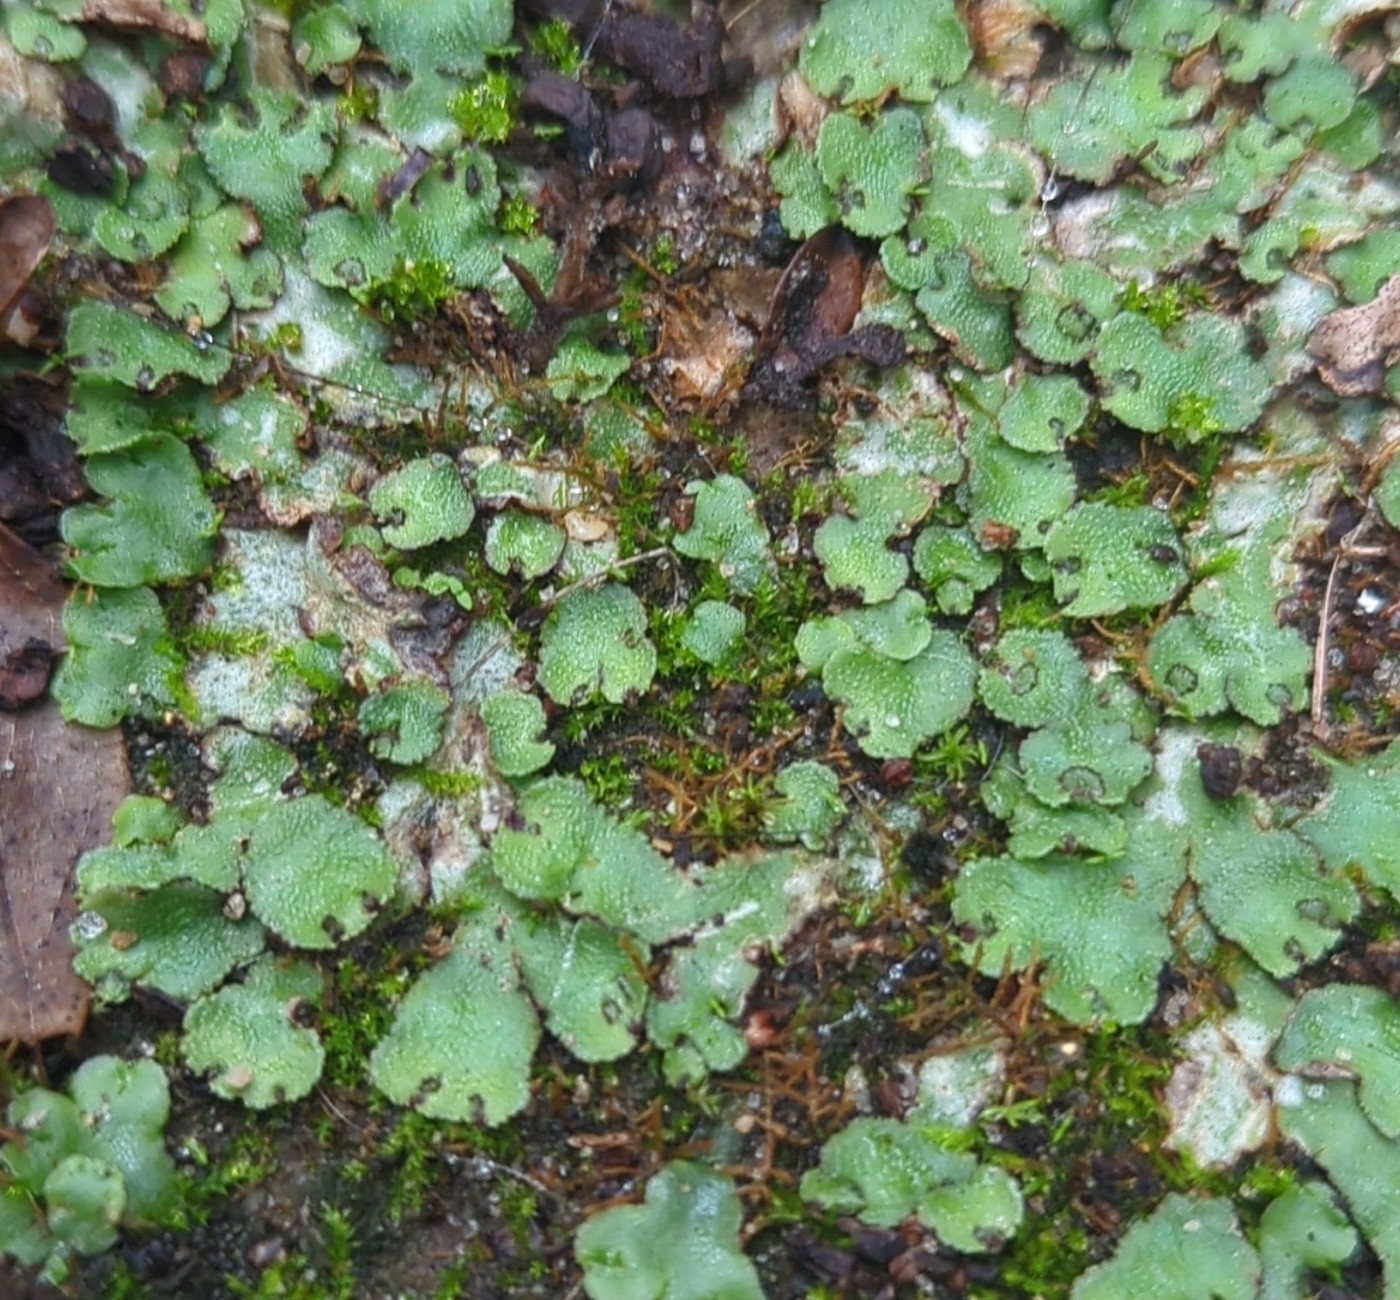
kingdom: Plantae
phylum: Marchantiophyta
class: Marchantiopsida
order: Marchantiales
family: Aytoniaceae
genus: Reboulia
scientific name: Reboulia hemisphaerica
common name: Purple-margined liverwort
